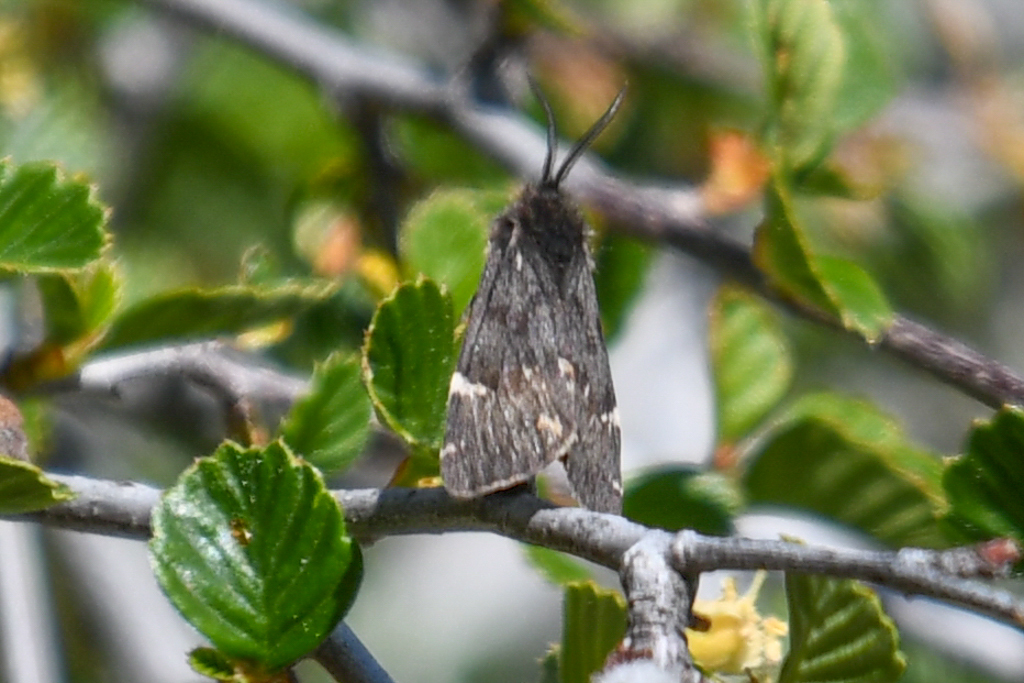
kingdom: Animalia
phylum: Arthropoda
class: Insecta
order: Lepidoptera
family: Erebidae
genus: Leptarctia
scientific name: Leptarctia californiae
